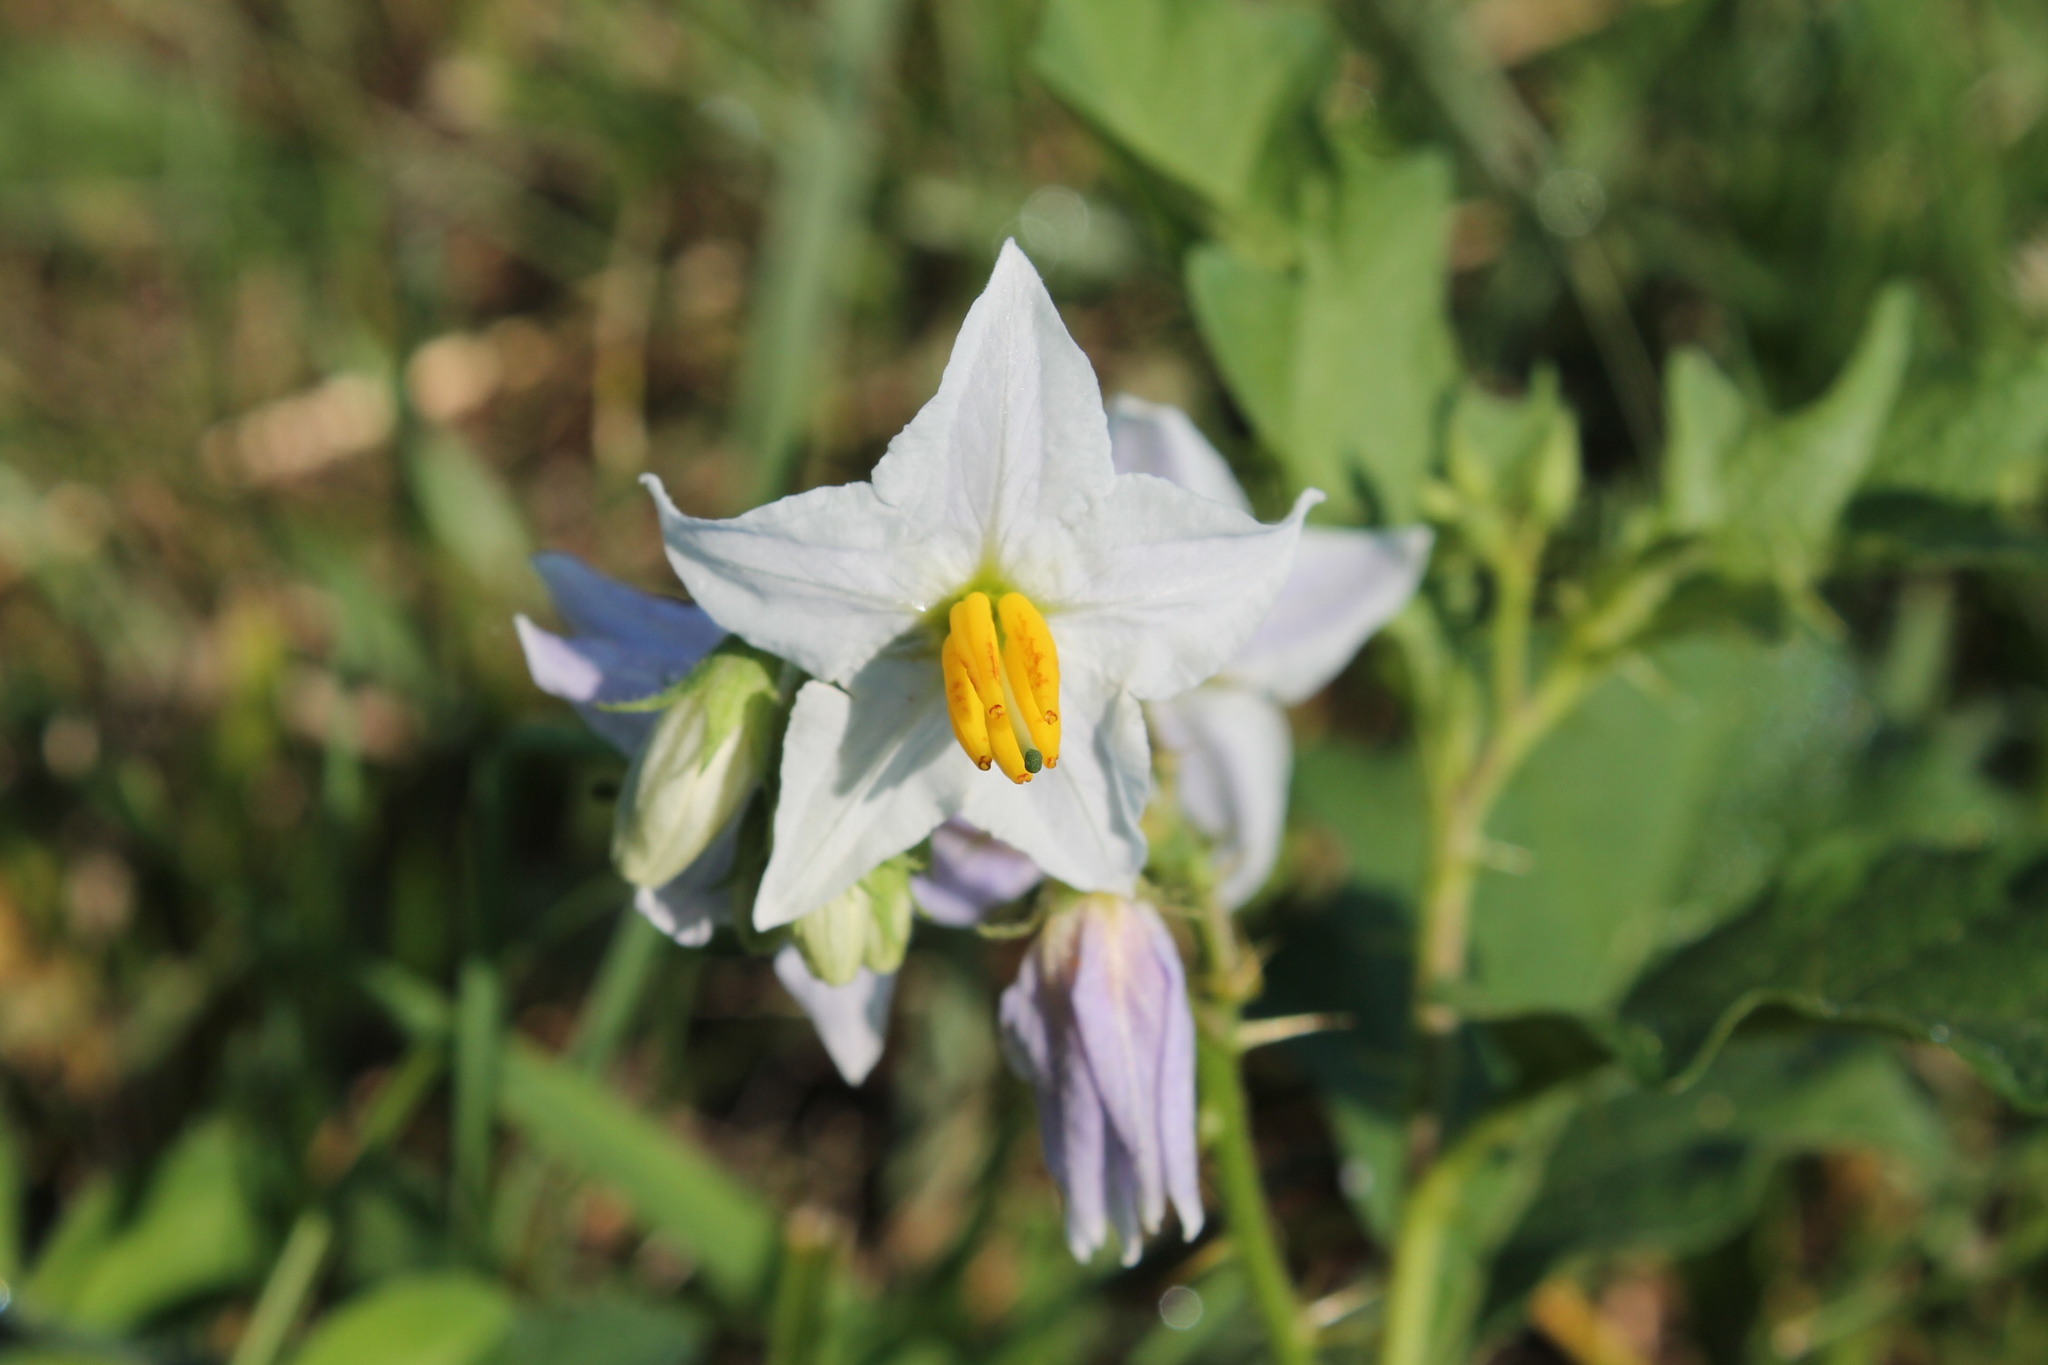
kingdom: Plantae
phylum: Tracheophyta
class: Magnoliopsida
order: Solanales
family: Solanaceae
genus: Solanum
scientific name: Solanum carolinense
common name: Horse-nettle
